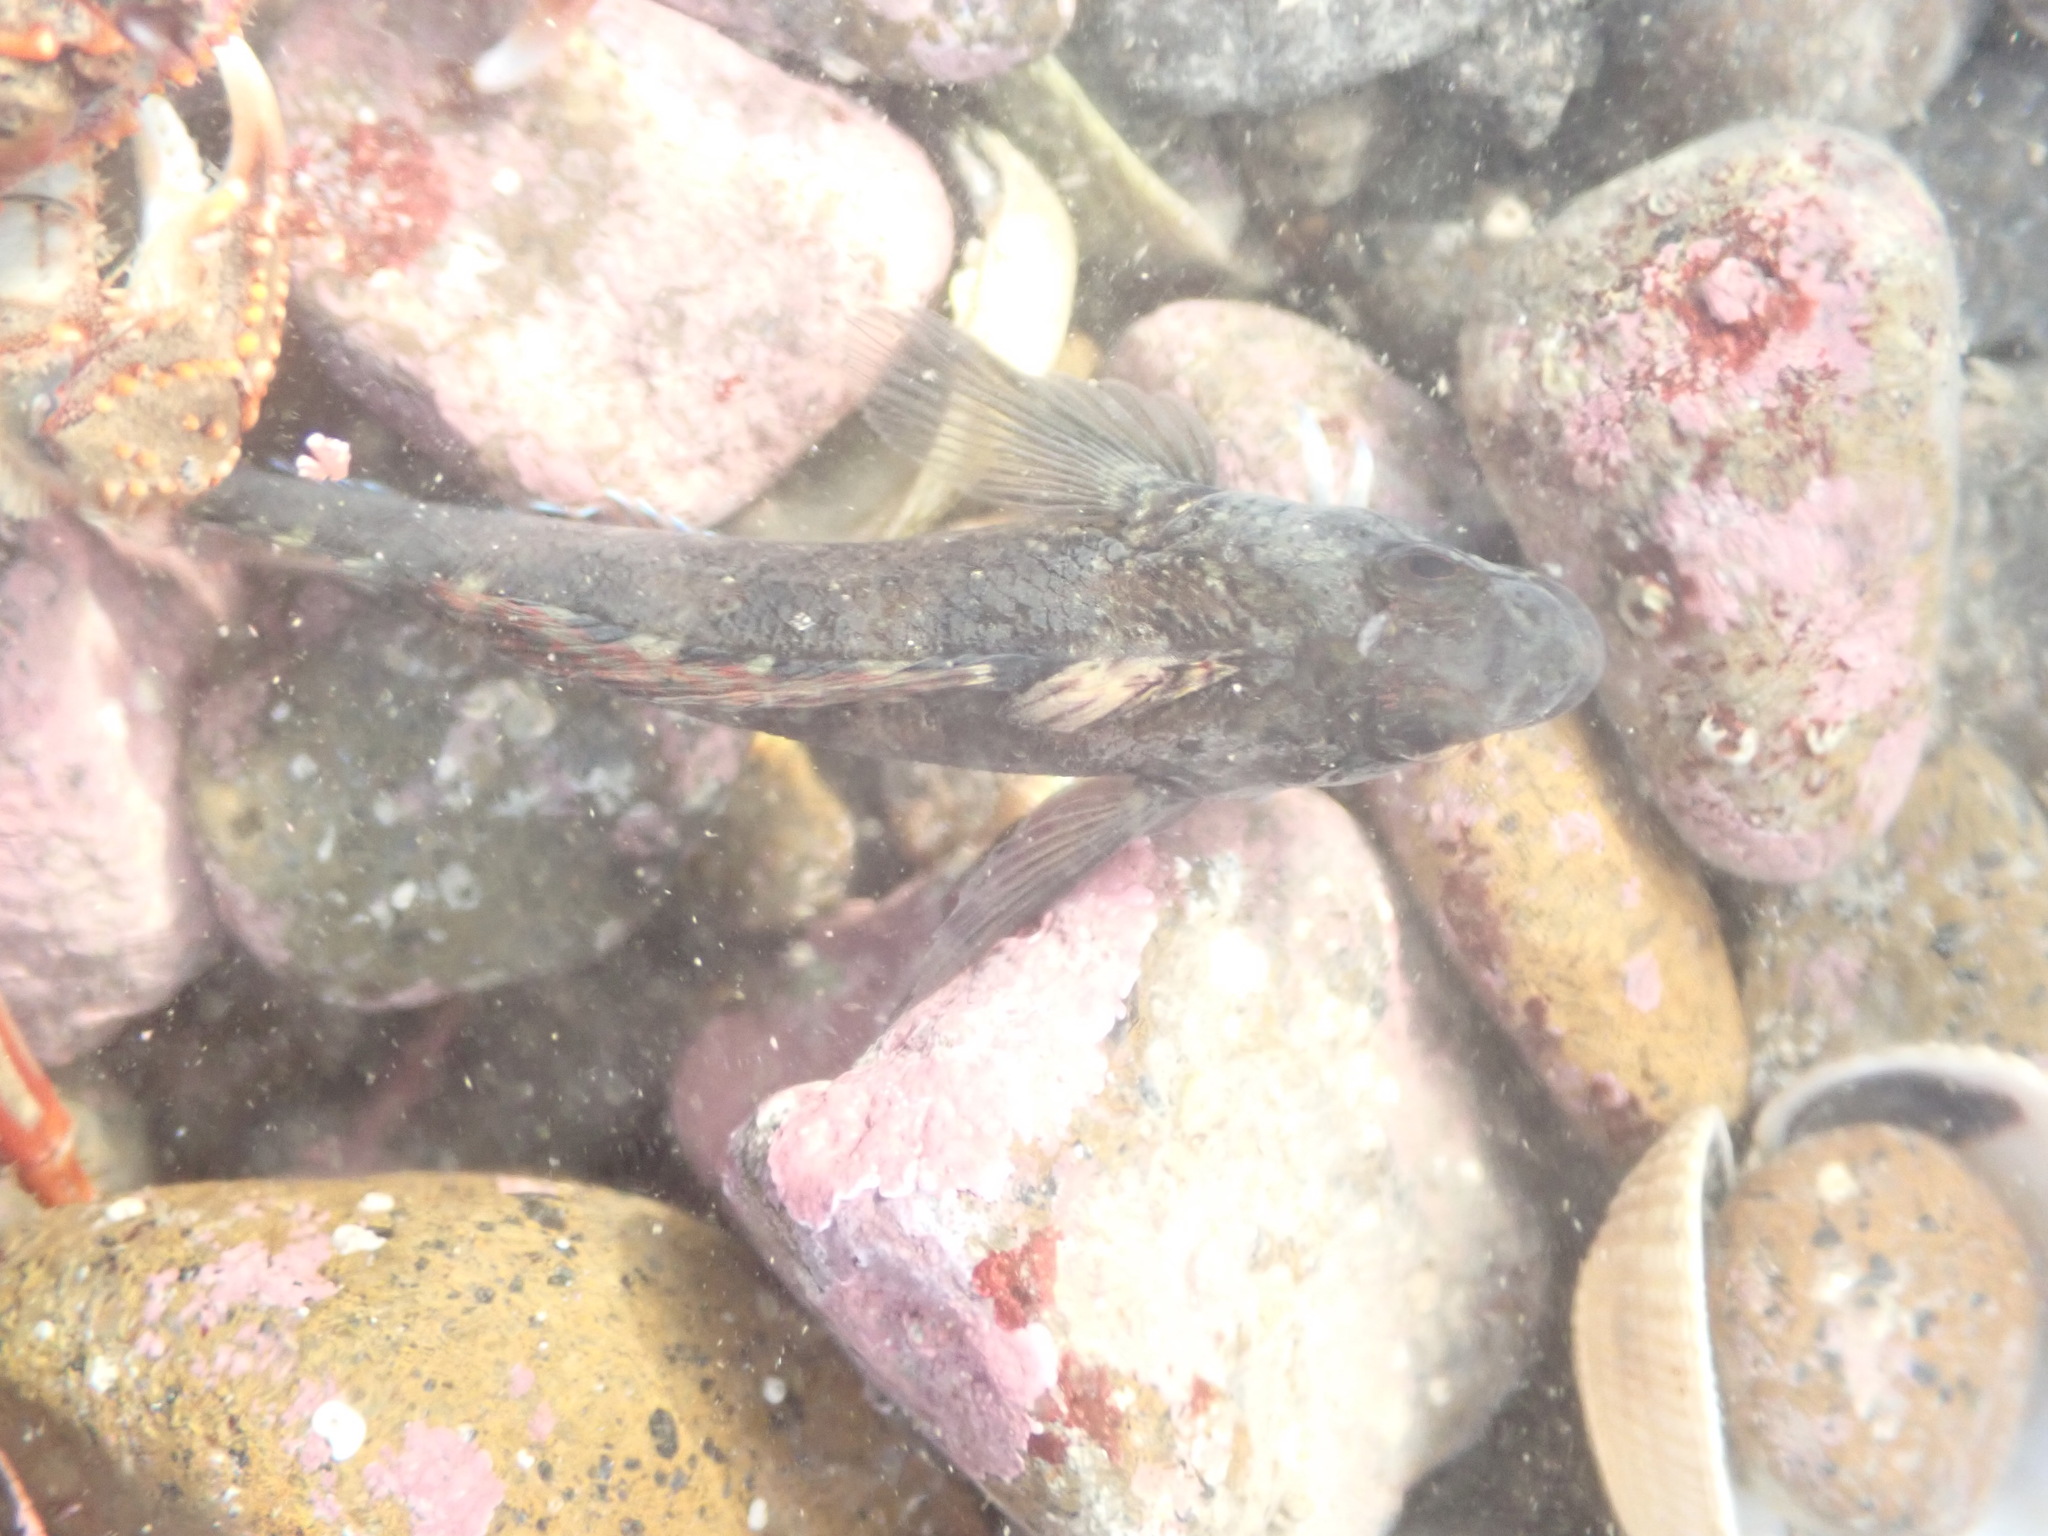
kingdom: Animalia
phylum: Chordata
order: Perciformes
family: Tripterygiidae
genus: Forsterygion
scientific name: Forsterygion lapillum
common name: Common triplefin
